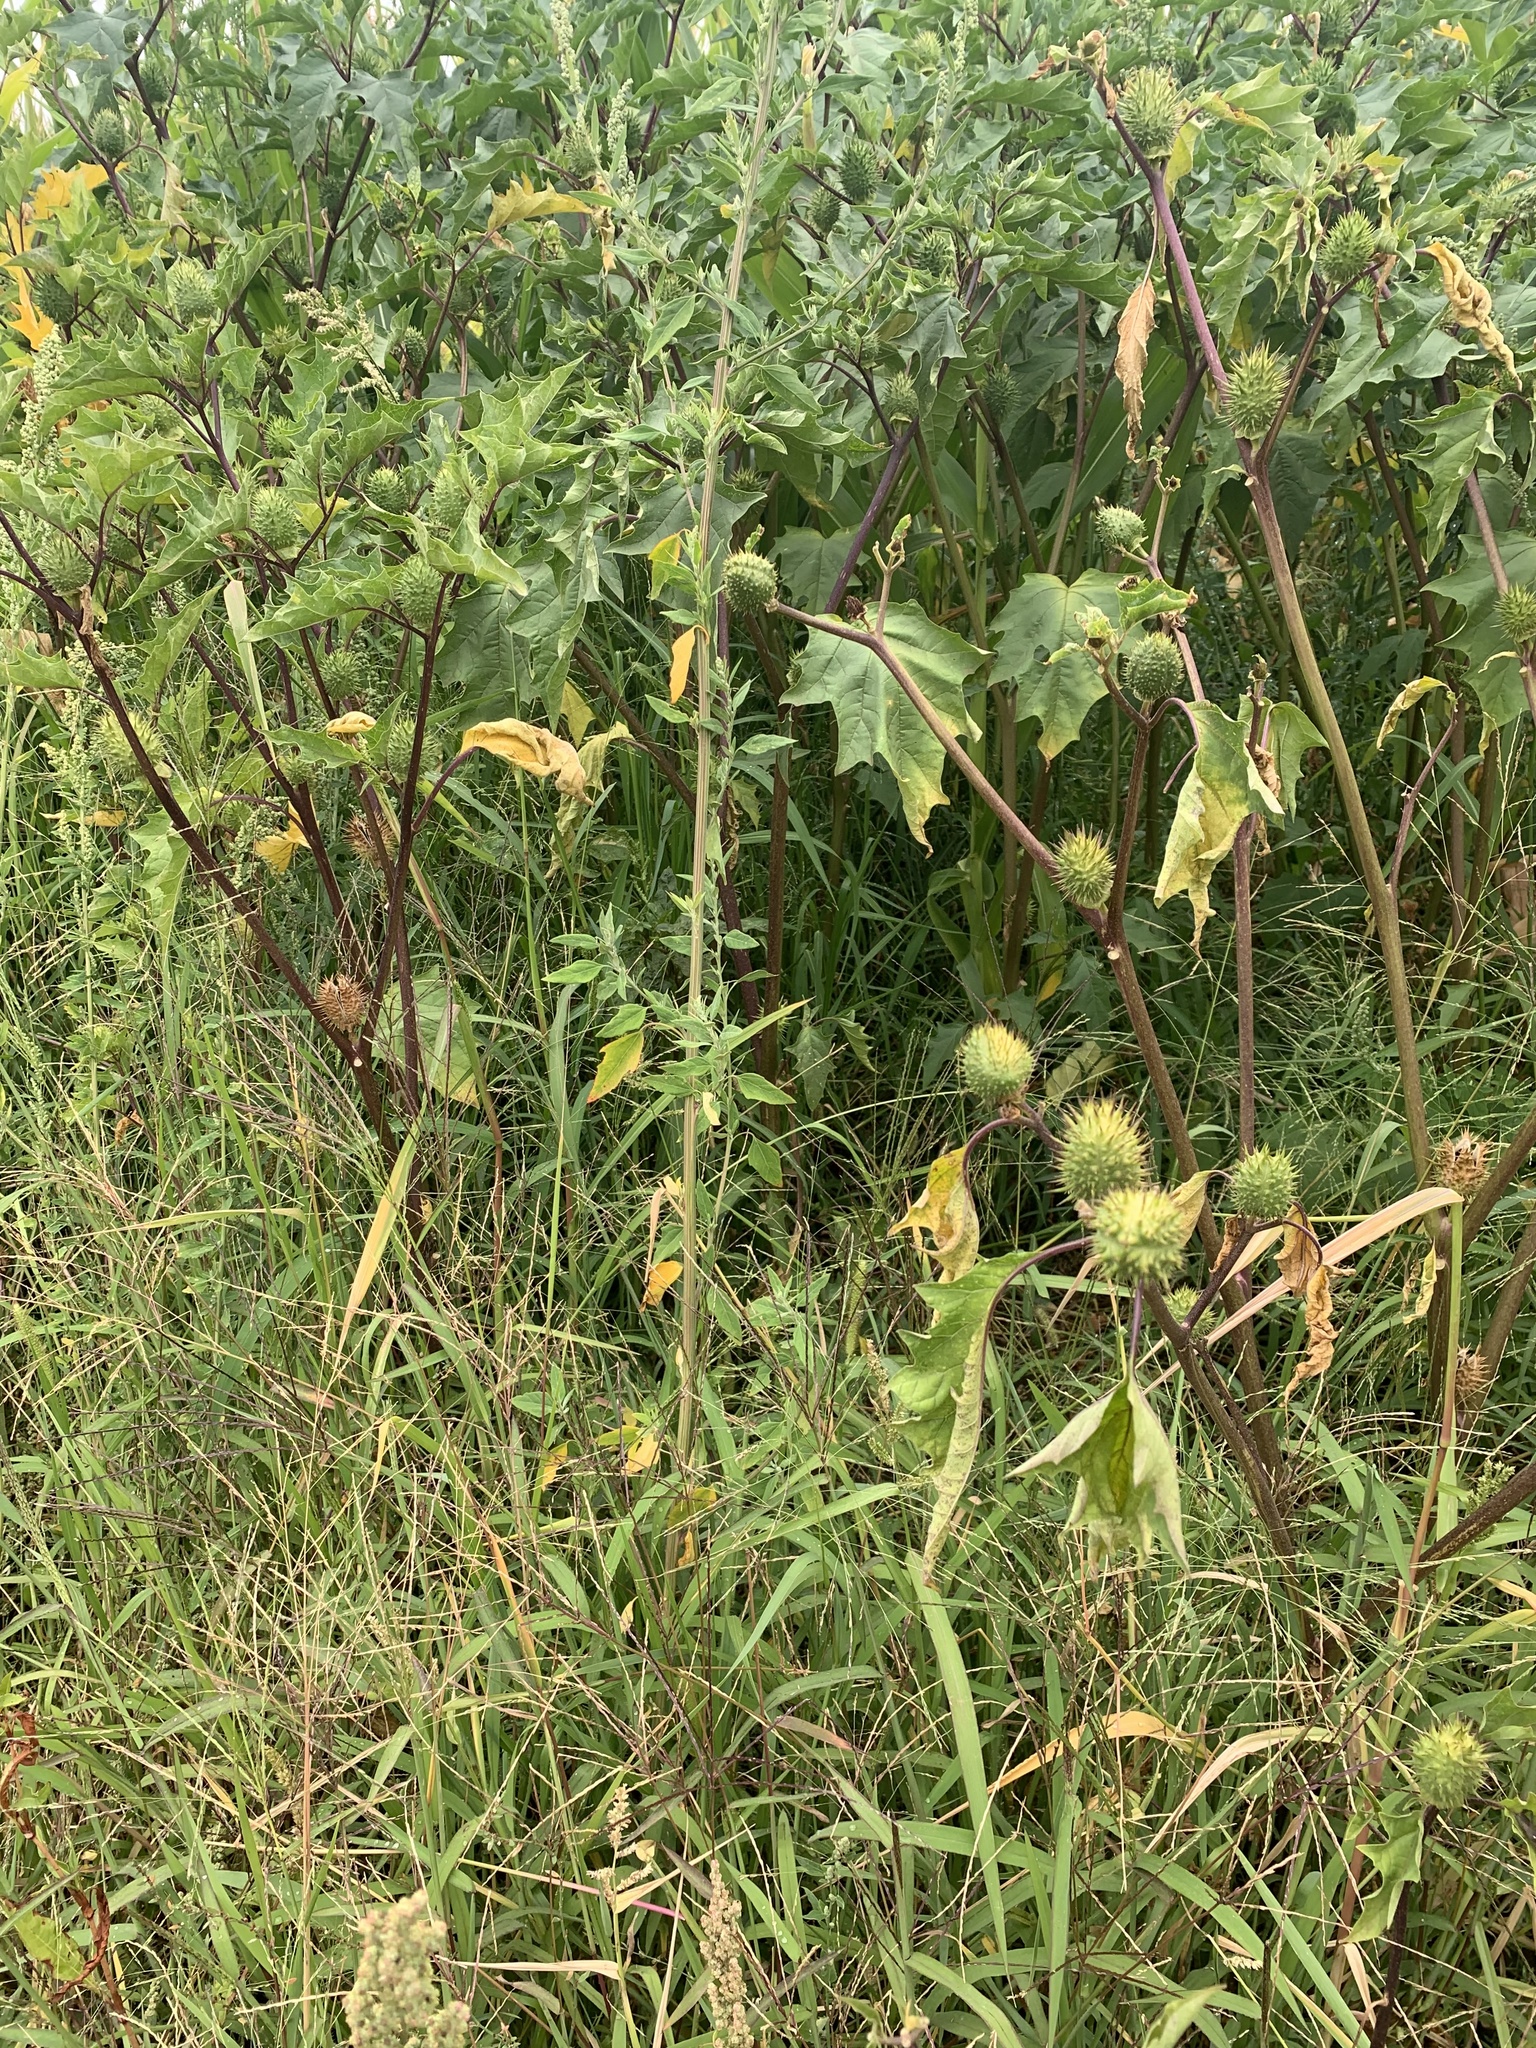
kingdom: Plantae
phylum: Tracheophyta
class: Magnoliopsida
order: Solanales
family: Solanaceae
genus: Datura
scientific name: Datura stramonium
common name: Thorn-apple
